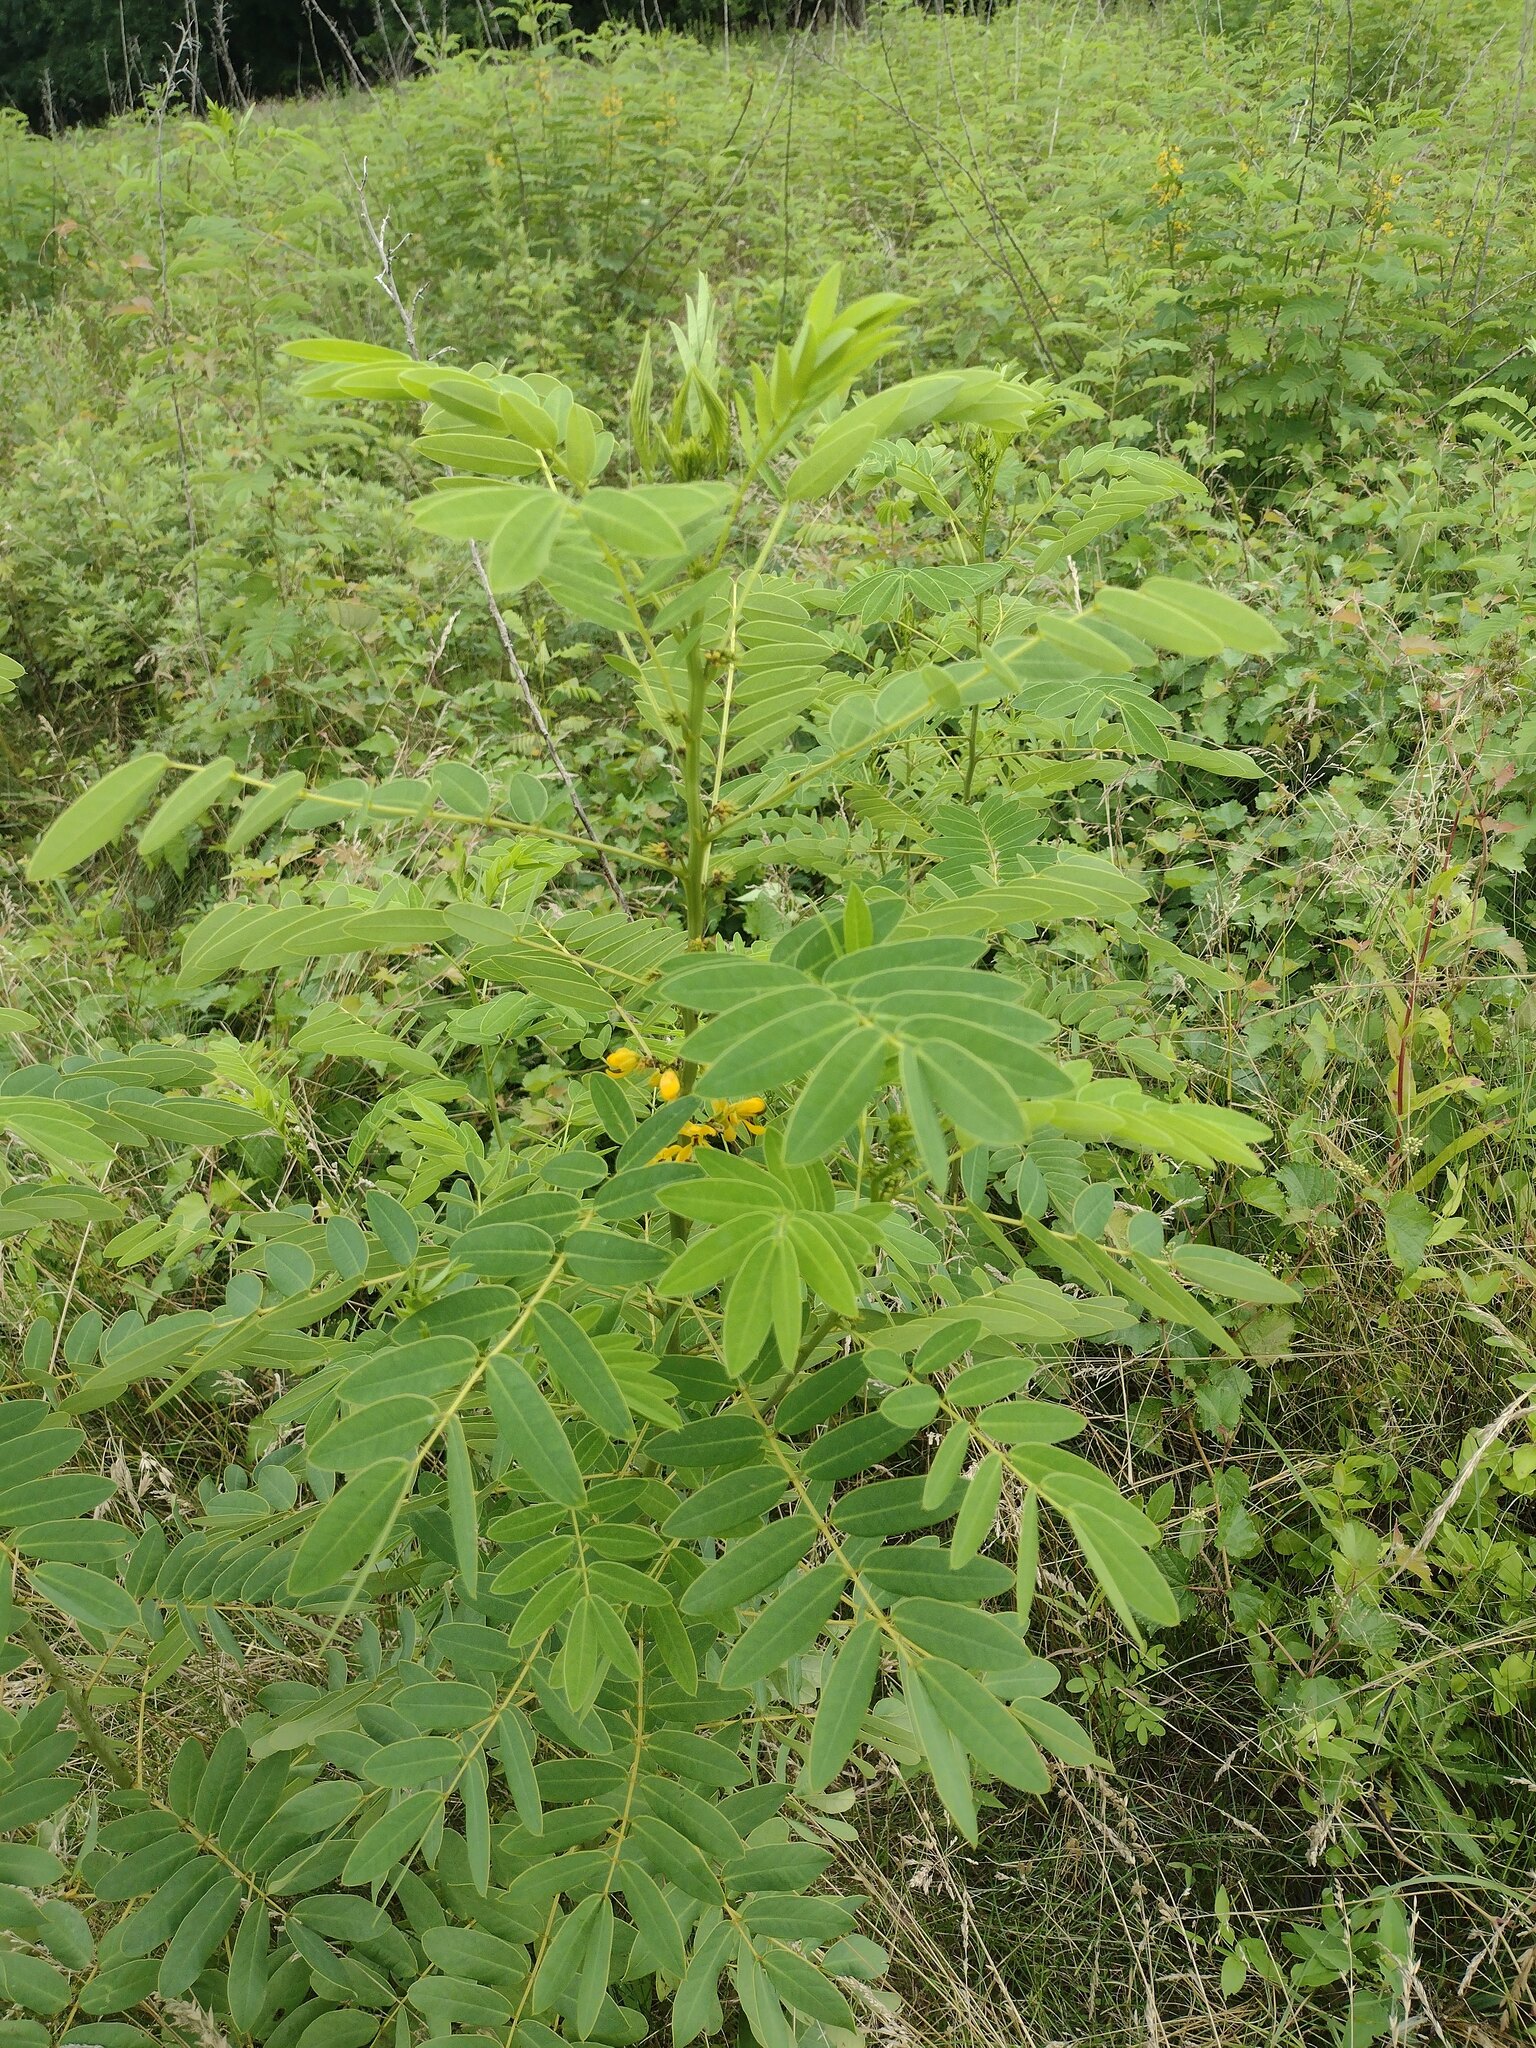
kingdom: Plantae
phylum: Tracheophyta
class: Magnoliopsida
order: Fabales
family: Fabaceae
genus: Senna
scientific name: Senna hebecarpa
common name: Wild senna
